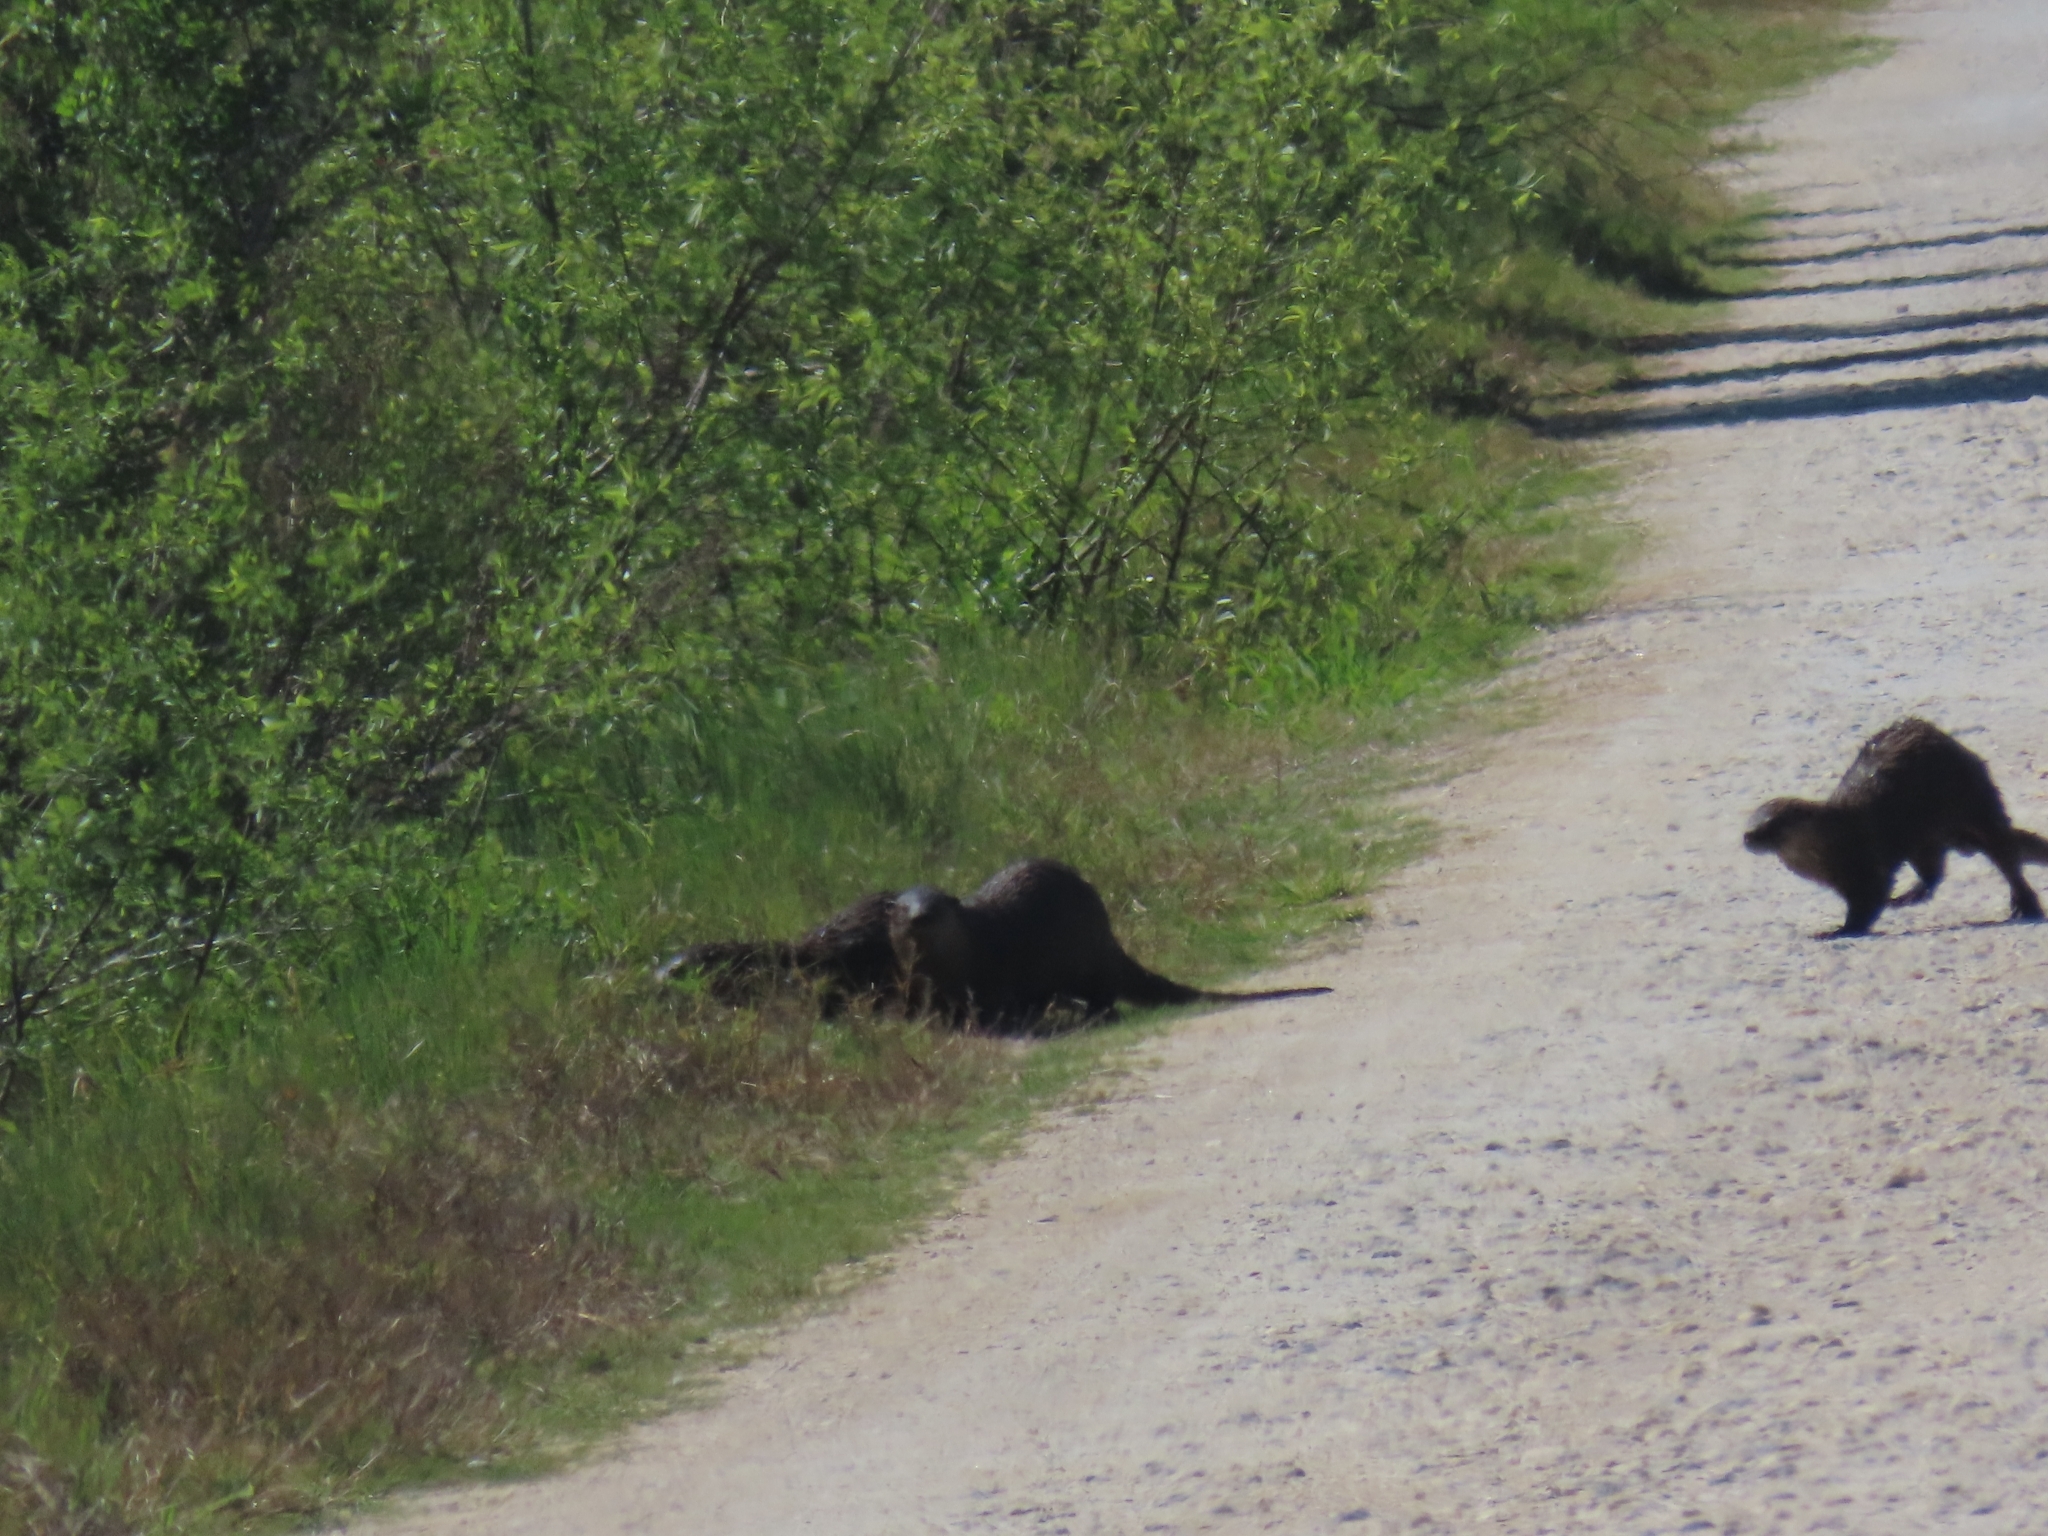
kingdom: Animalia
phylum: Chordata
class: Mammalia
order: Carnivora
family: Mustelidae
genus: Lontra
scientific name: Lontra canadensis
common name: North american river otter
